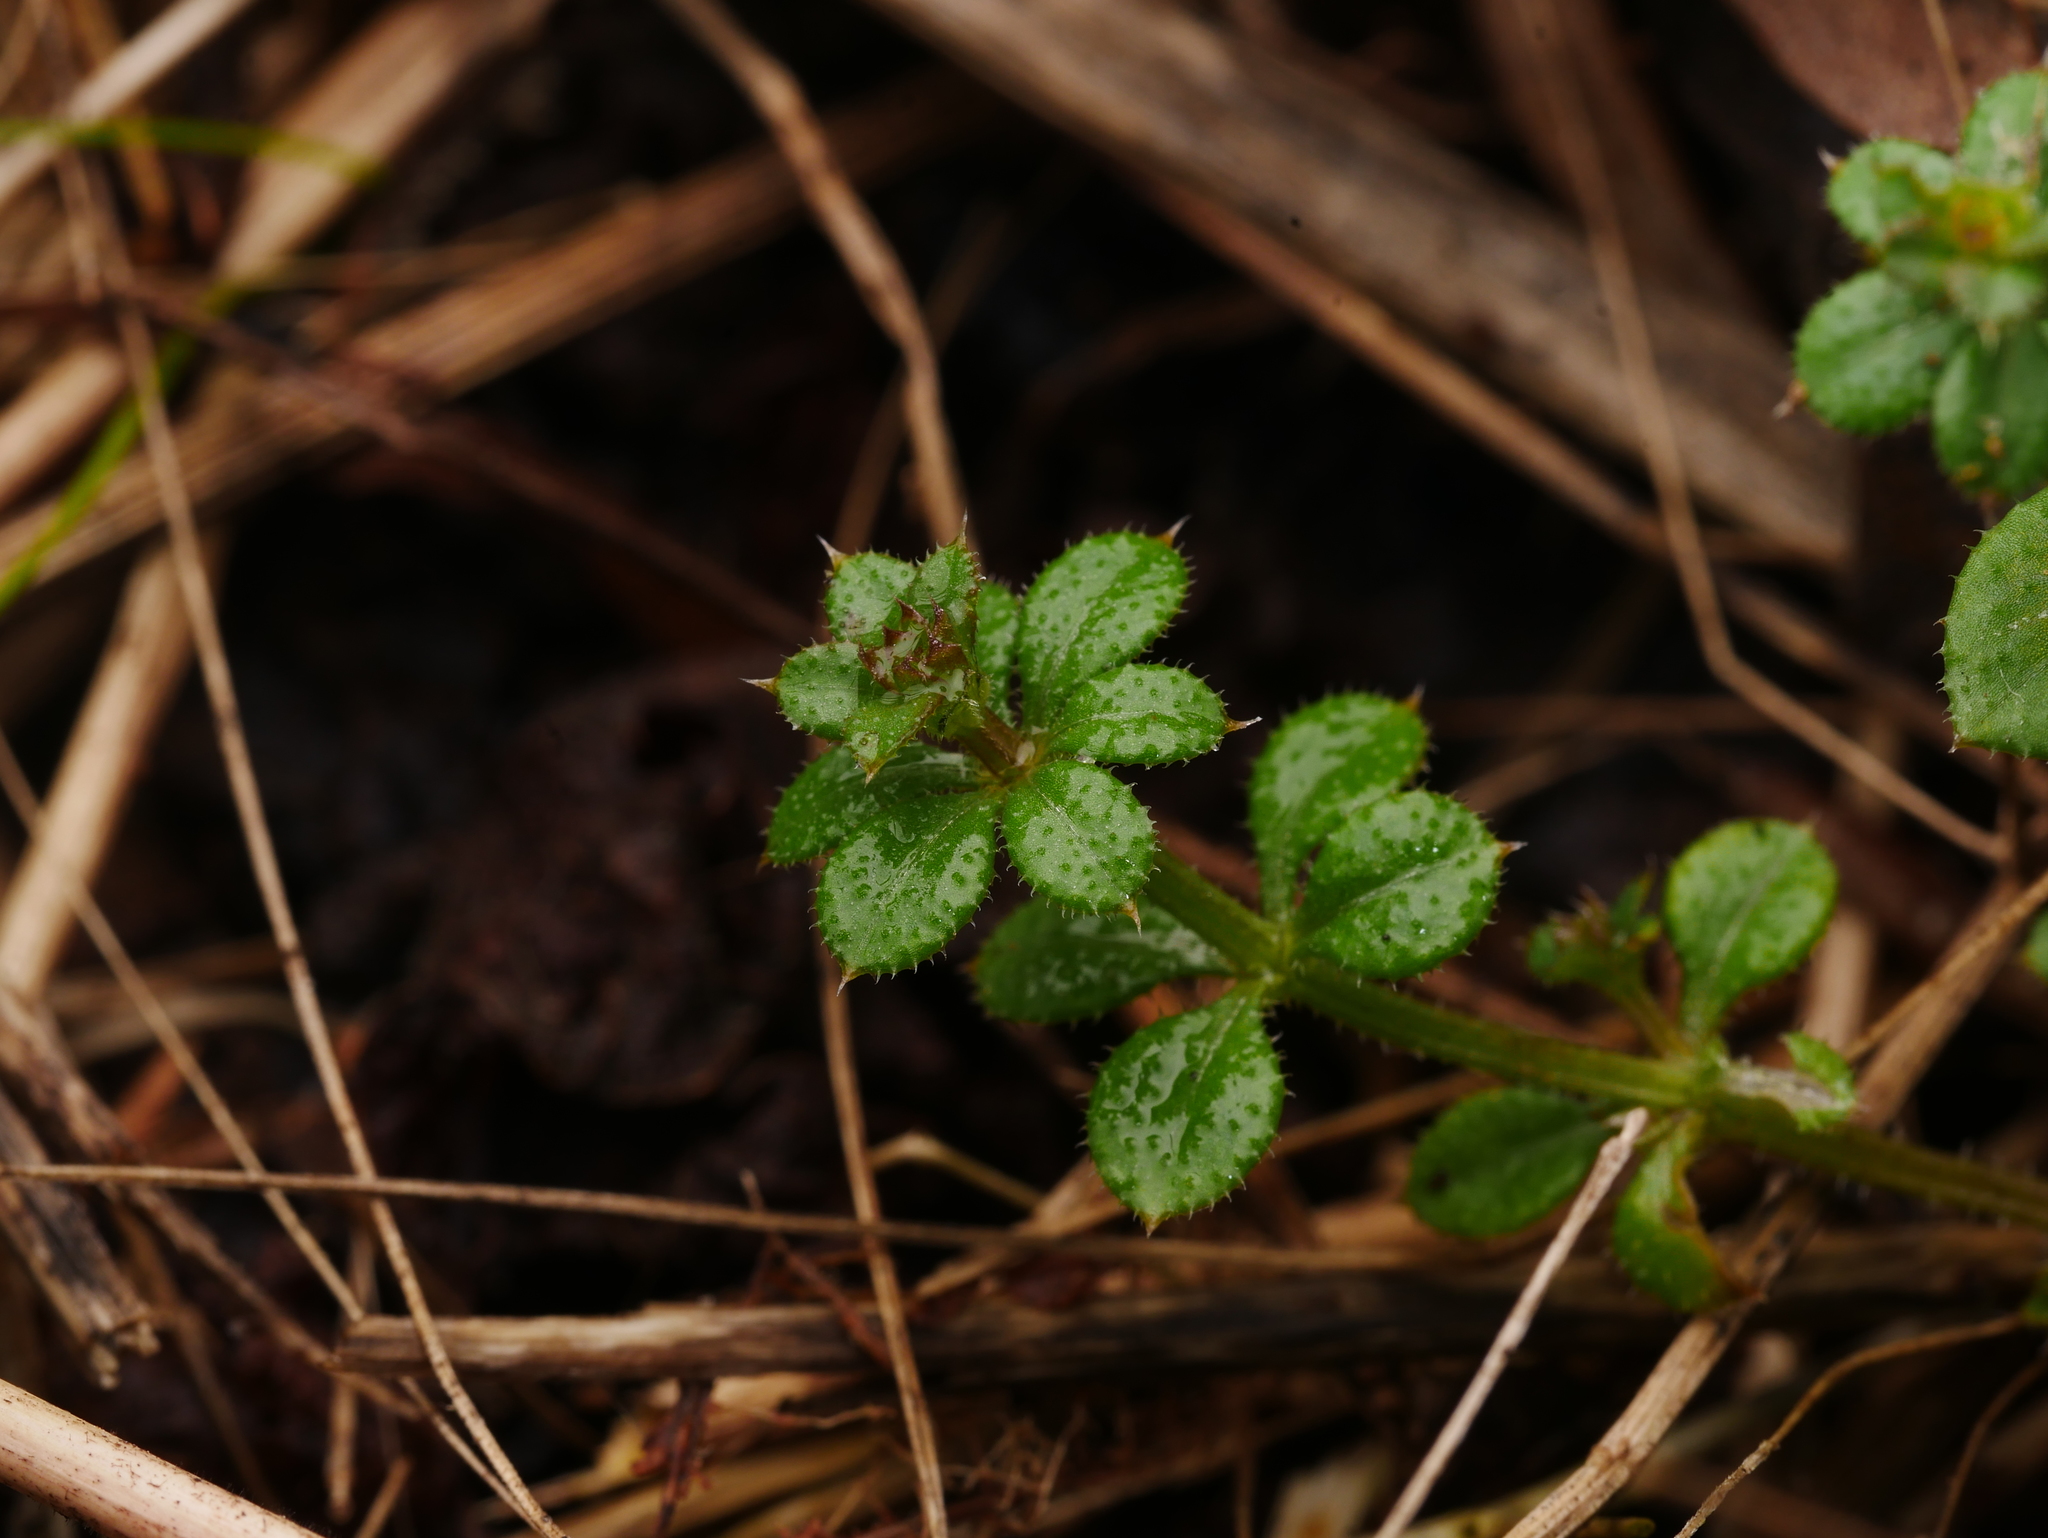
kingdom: Plantae
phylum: Tracheophyta
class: Magnoliopsida
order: Gentianales
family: Rubiaceae
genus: Galium
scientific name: Galium aparine
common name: Cleavers
